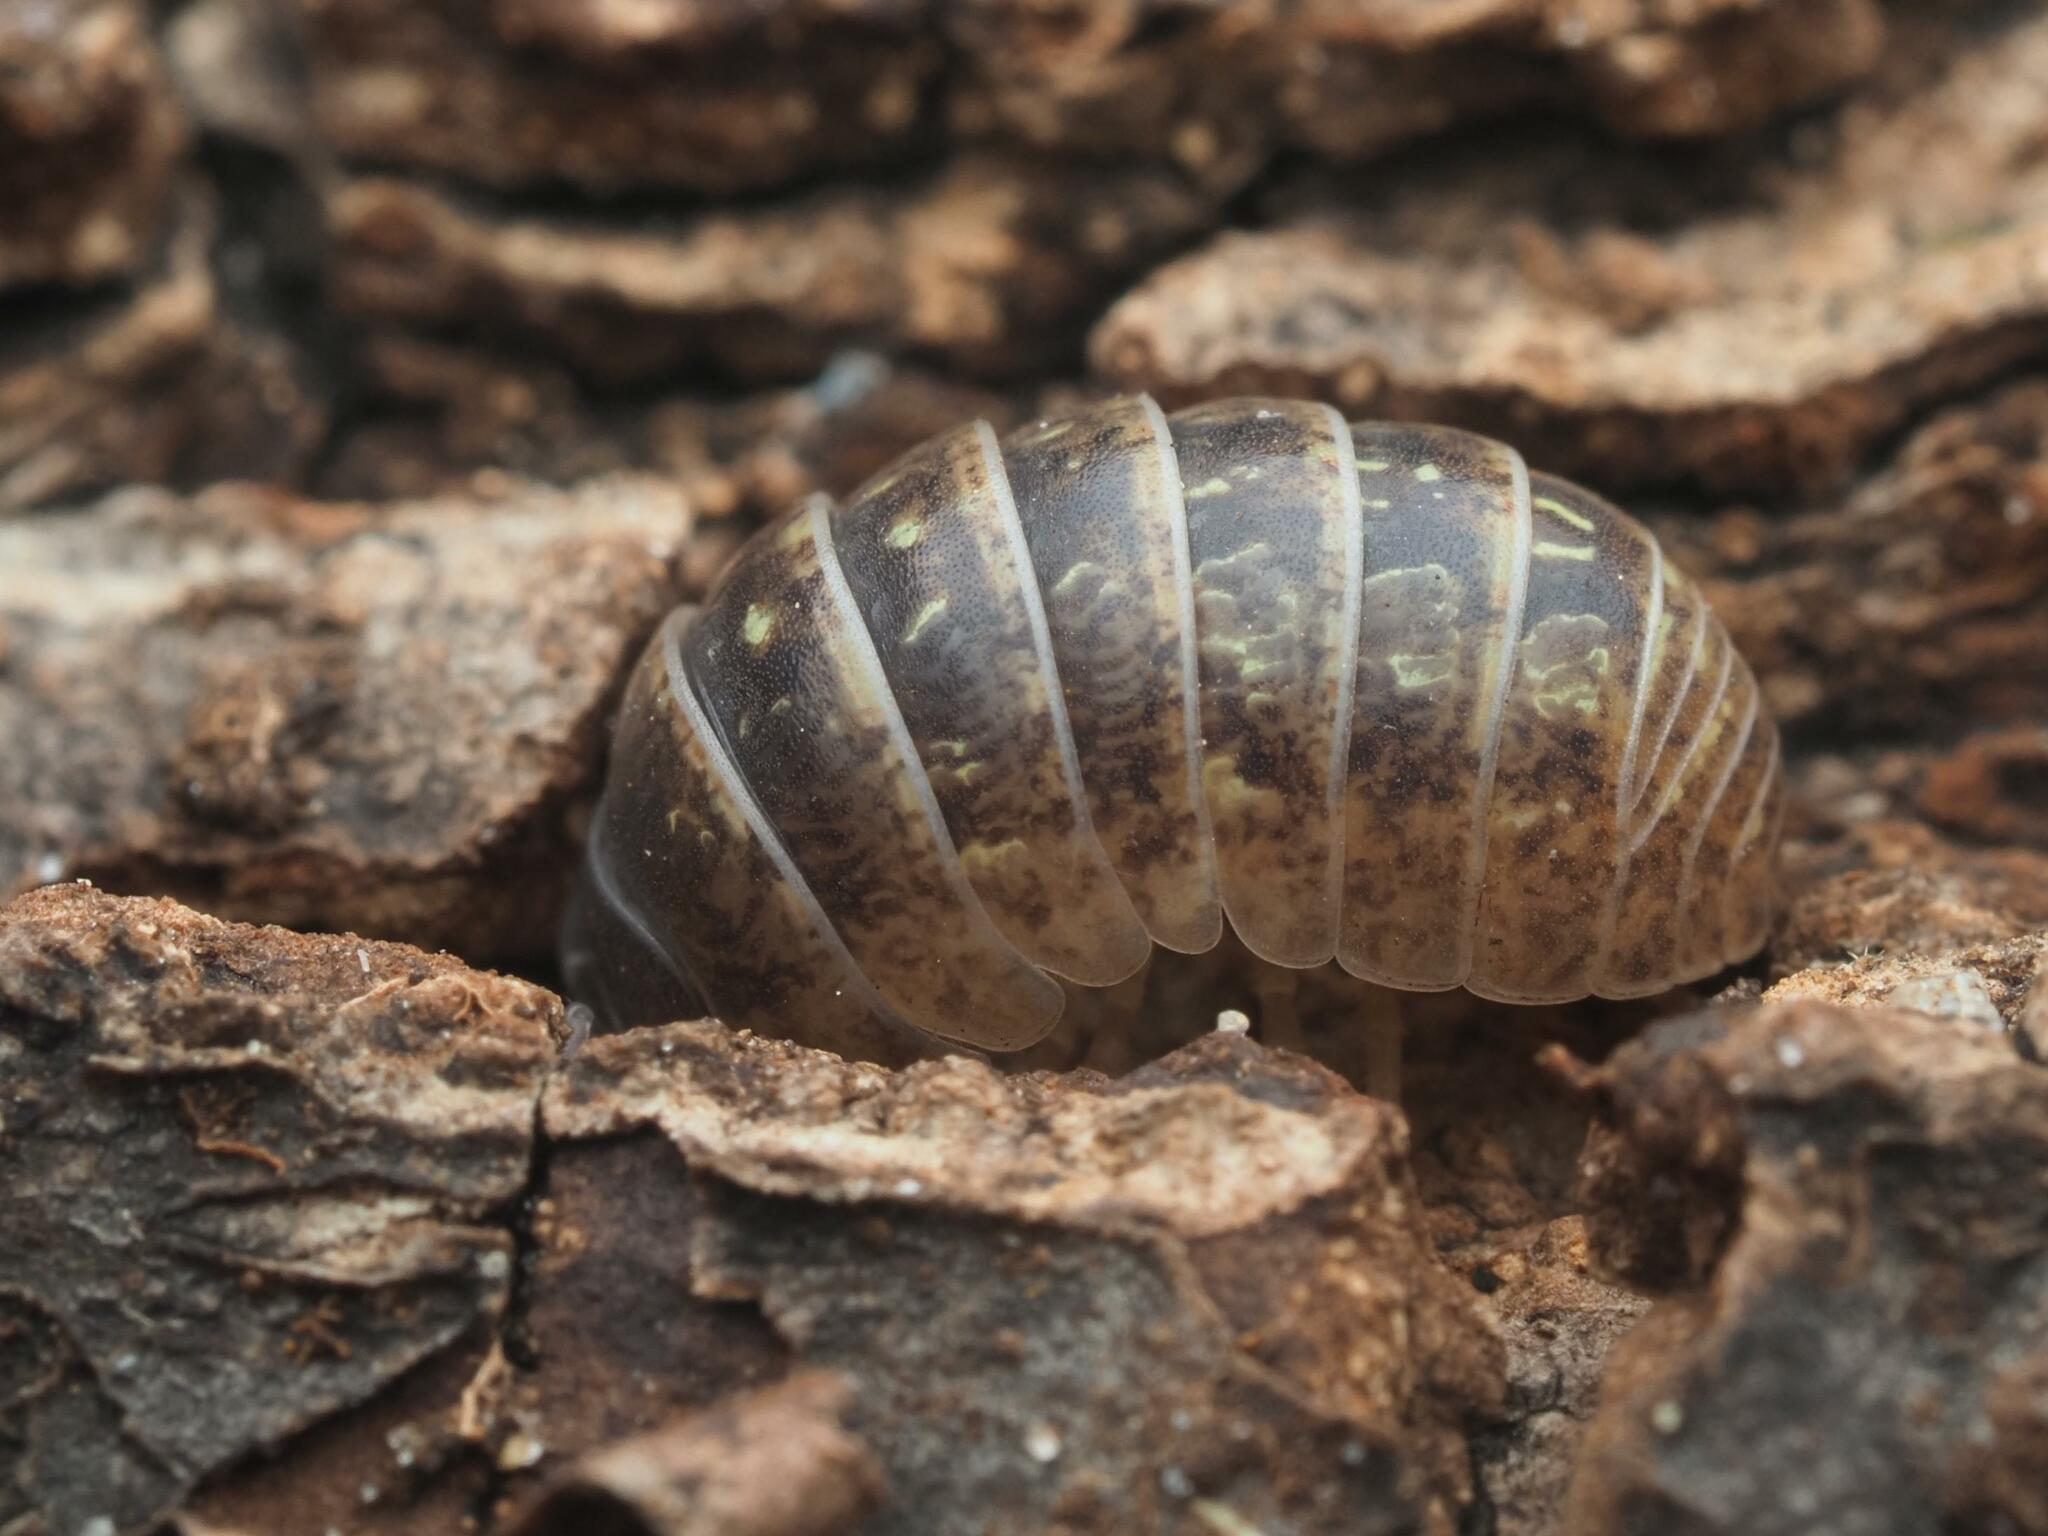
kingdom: Animalia
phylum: Arthropoda
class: Malacostraca
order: Isopoda
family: Armadillidiidae
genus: Armadillidium
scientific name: Armadillidium vulgare
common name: Common pill woodlouse
